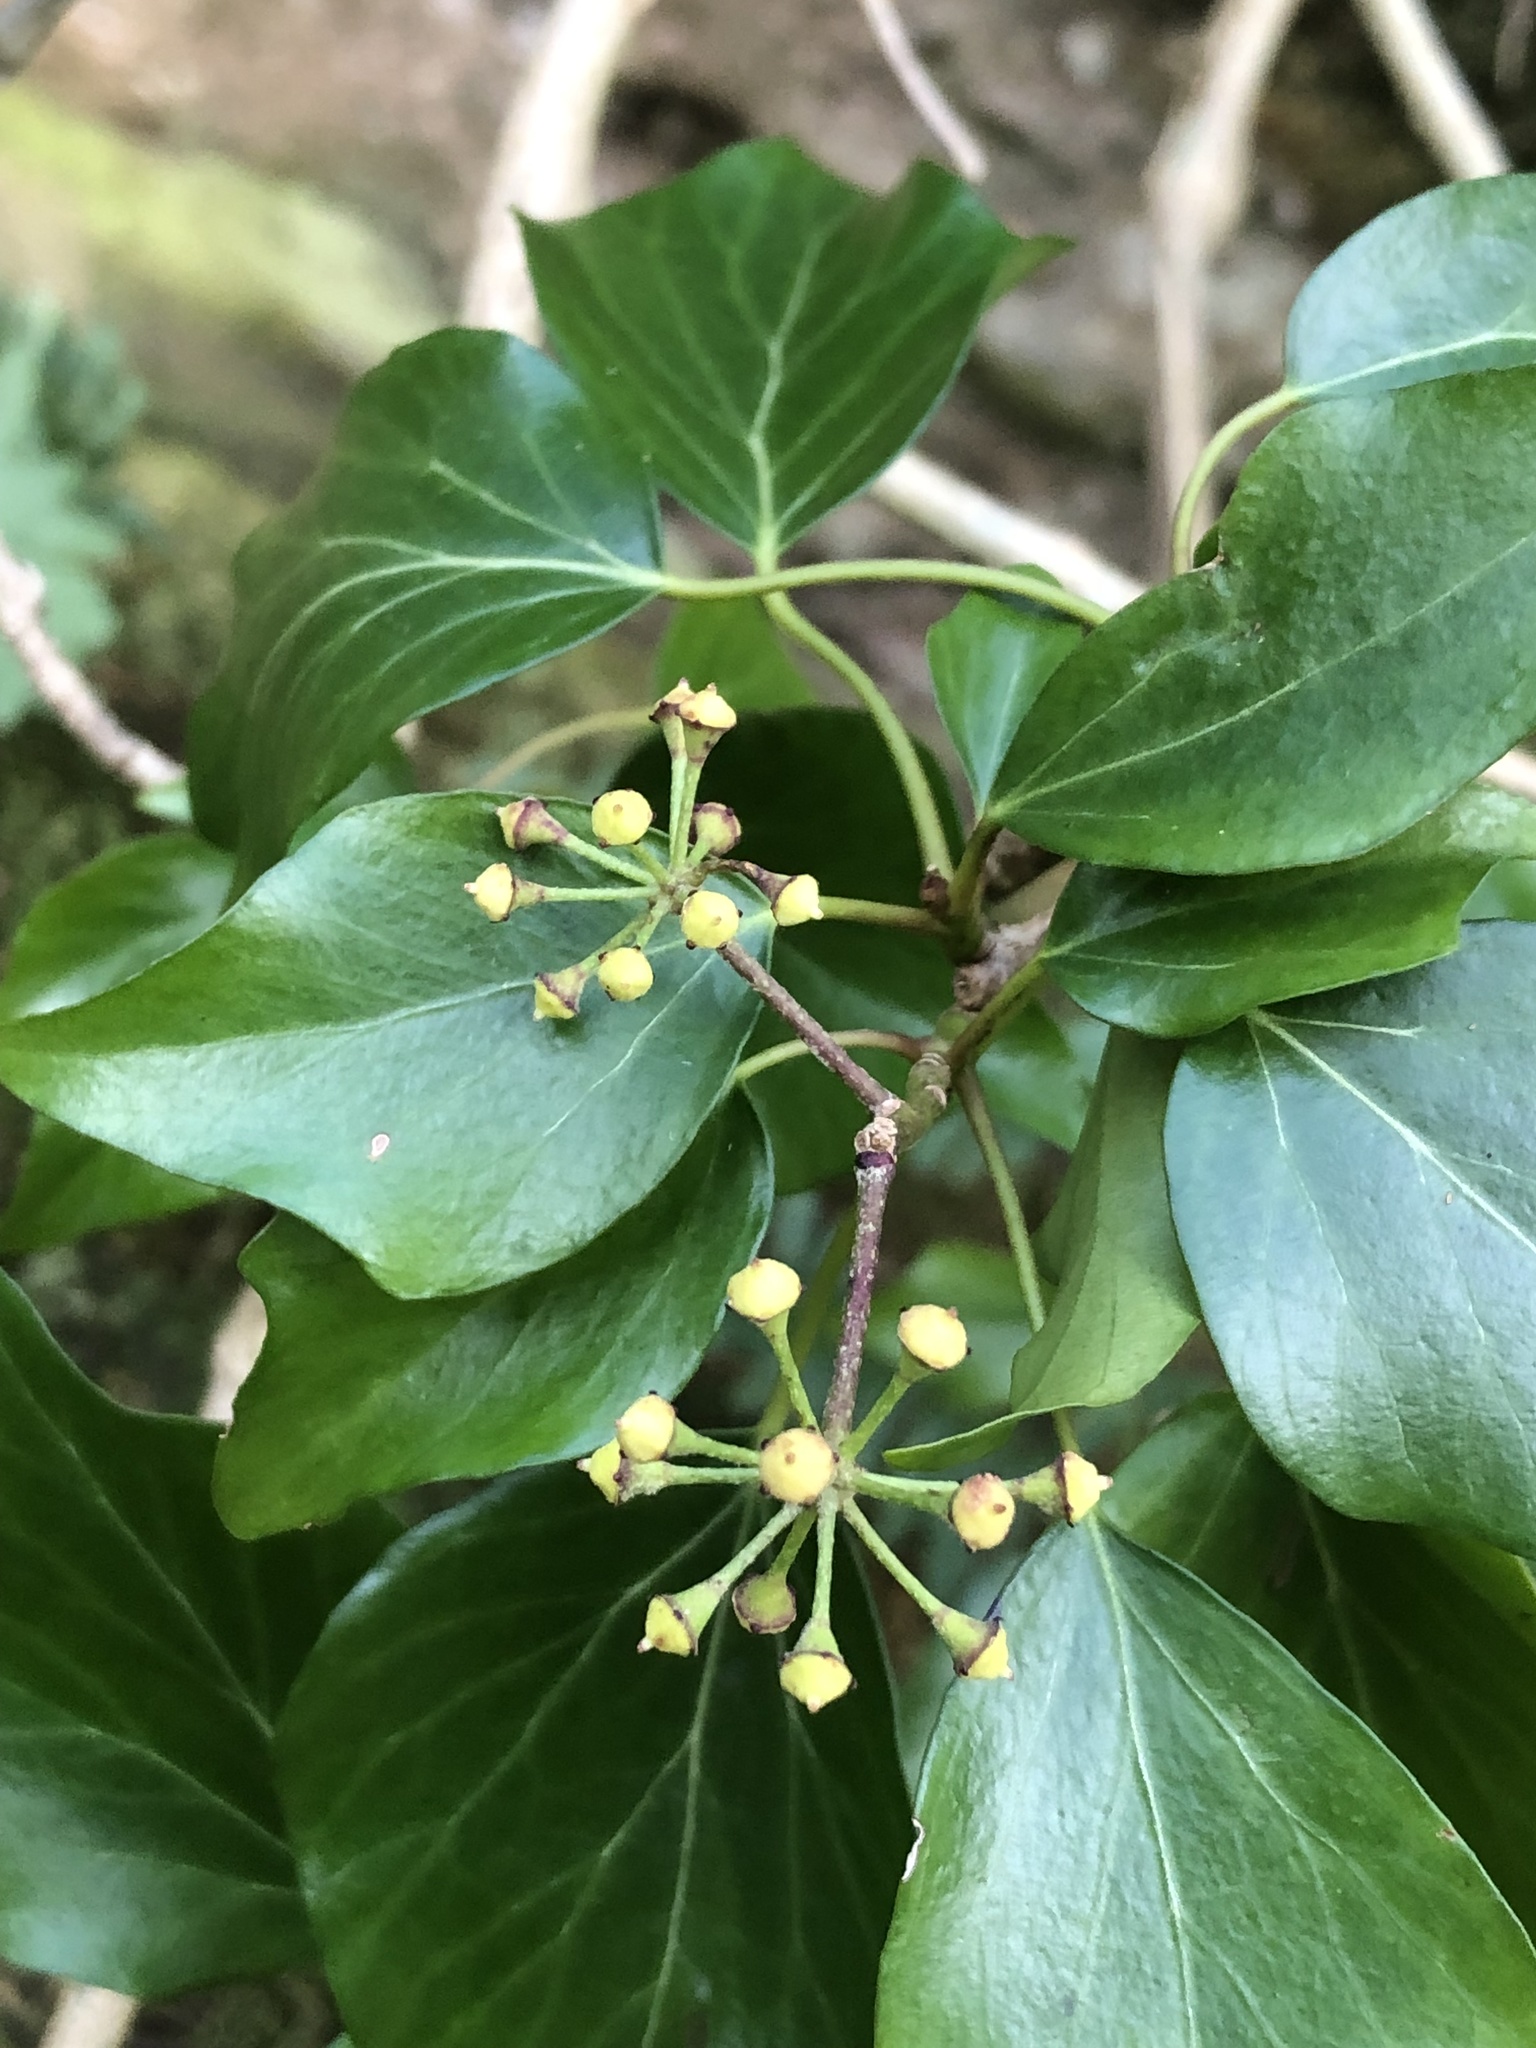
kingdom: Plantae
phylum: Tracheophyta
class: Magnoliopsida
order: Apiales
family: Araliaceae
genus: Hedera
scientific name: Hedera helix
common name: Ivy
